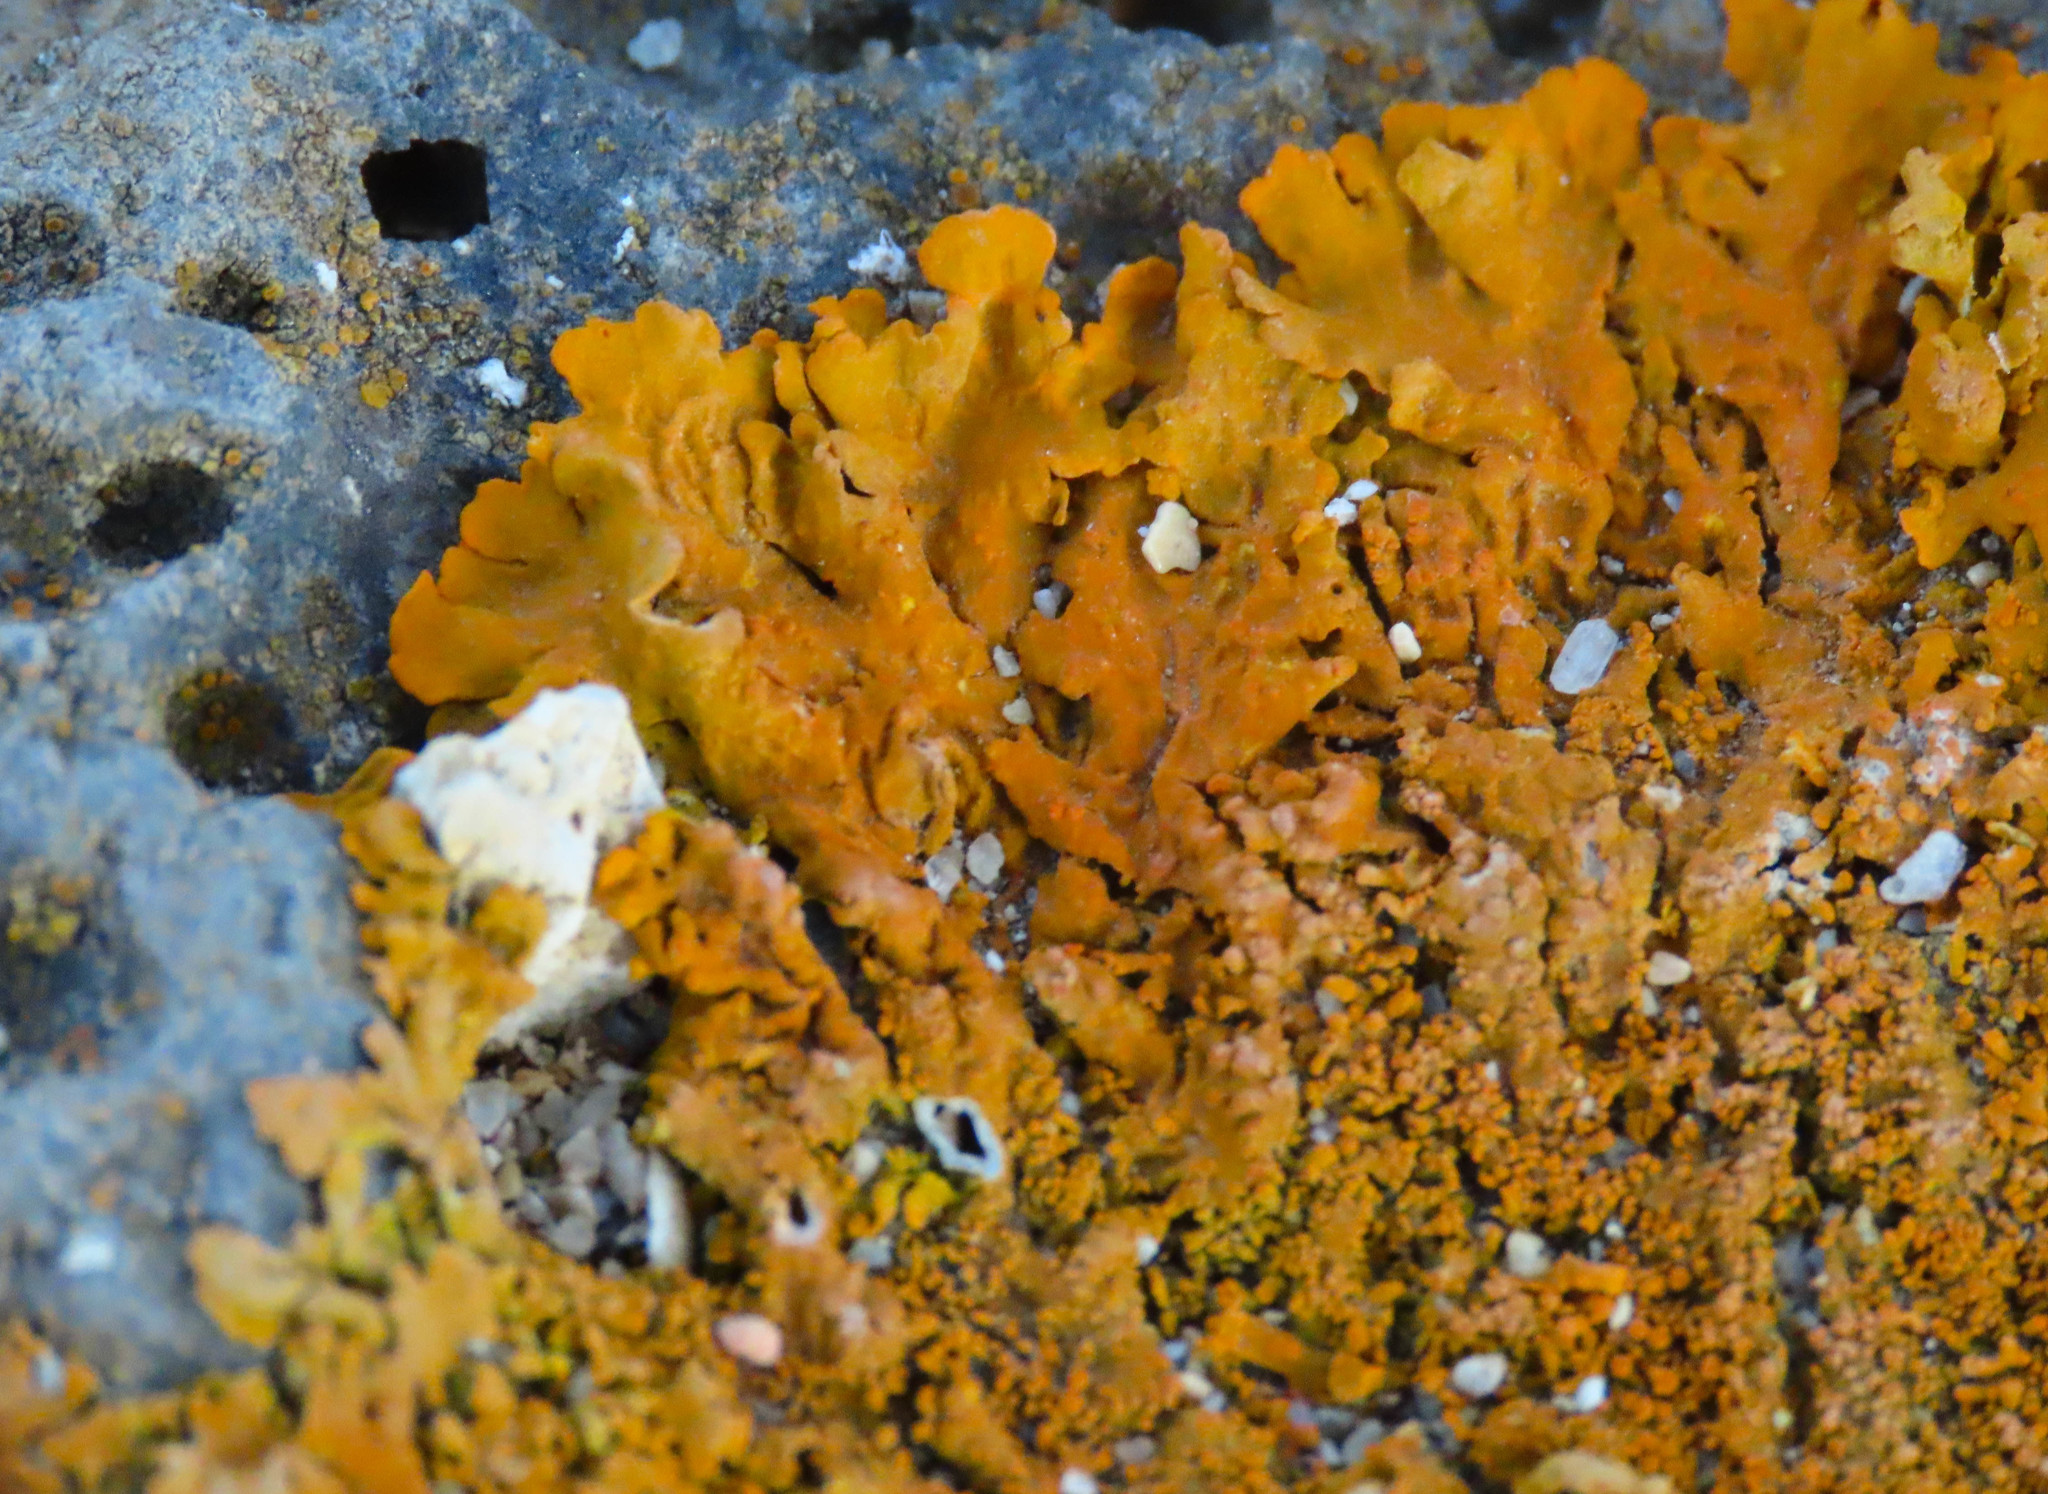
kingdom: Fungi
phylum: Ascomycota
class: Lecanoromycetes
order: Teloschistales
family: Teloschistaceae
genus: Xanthoria
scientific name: Xanthoria calcicola
